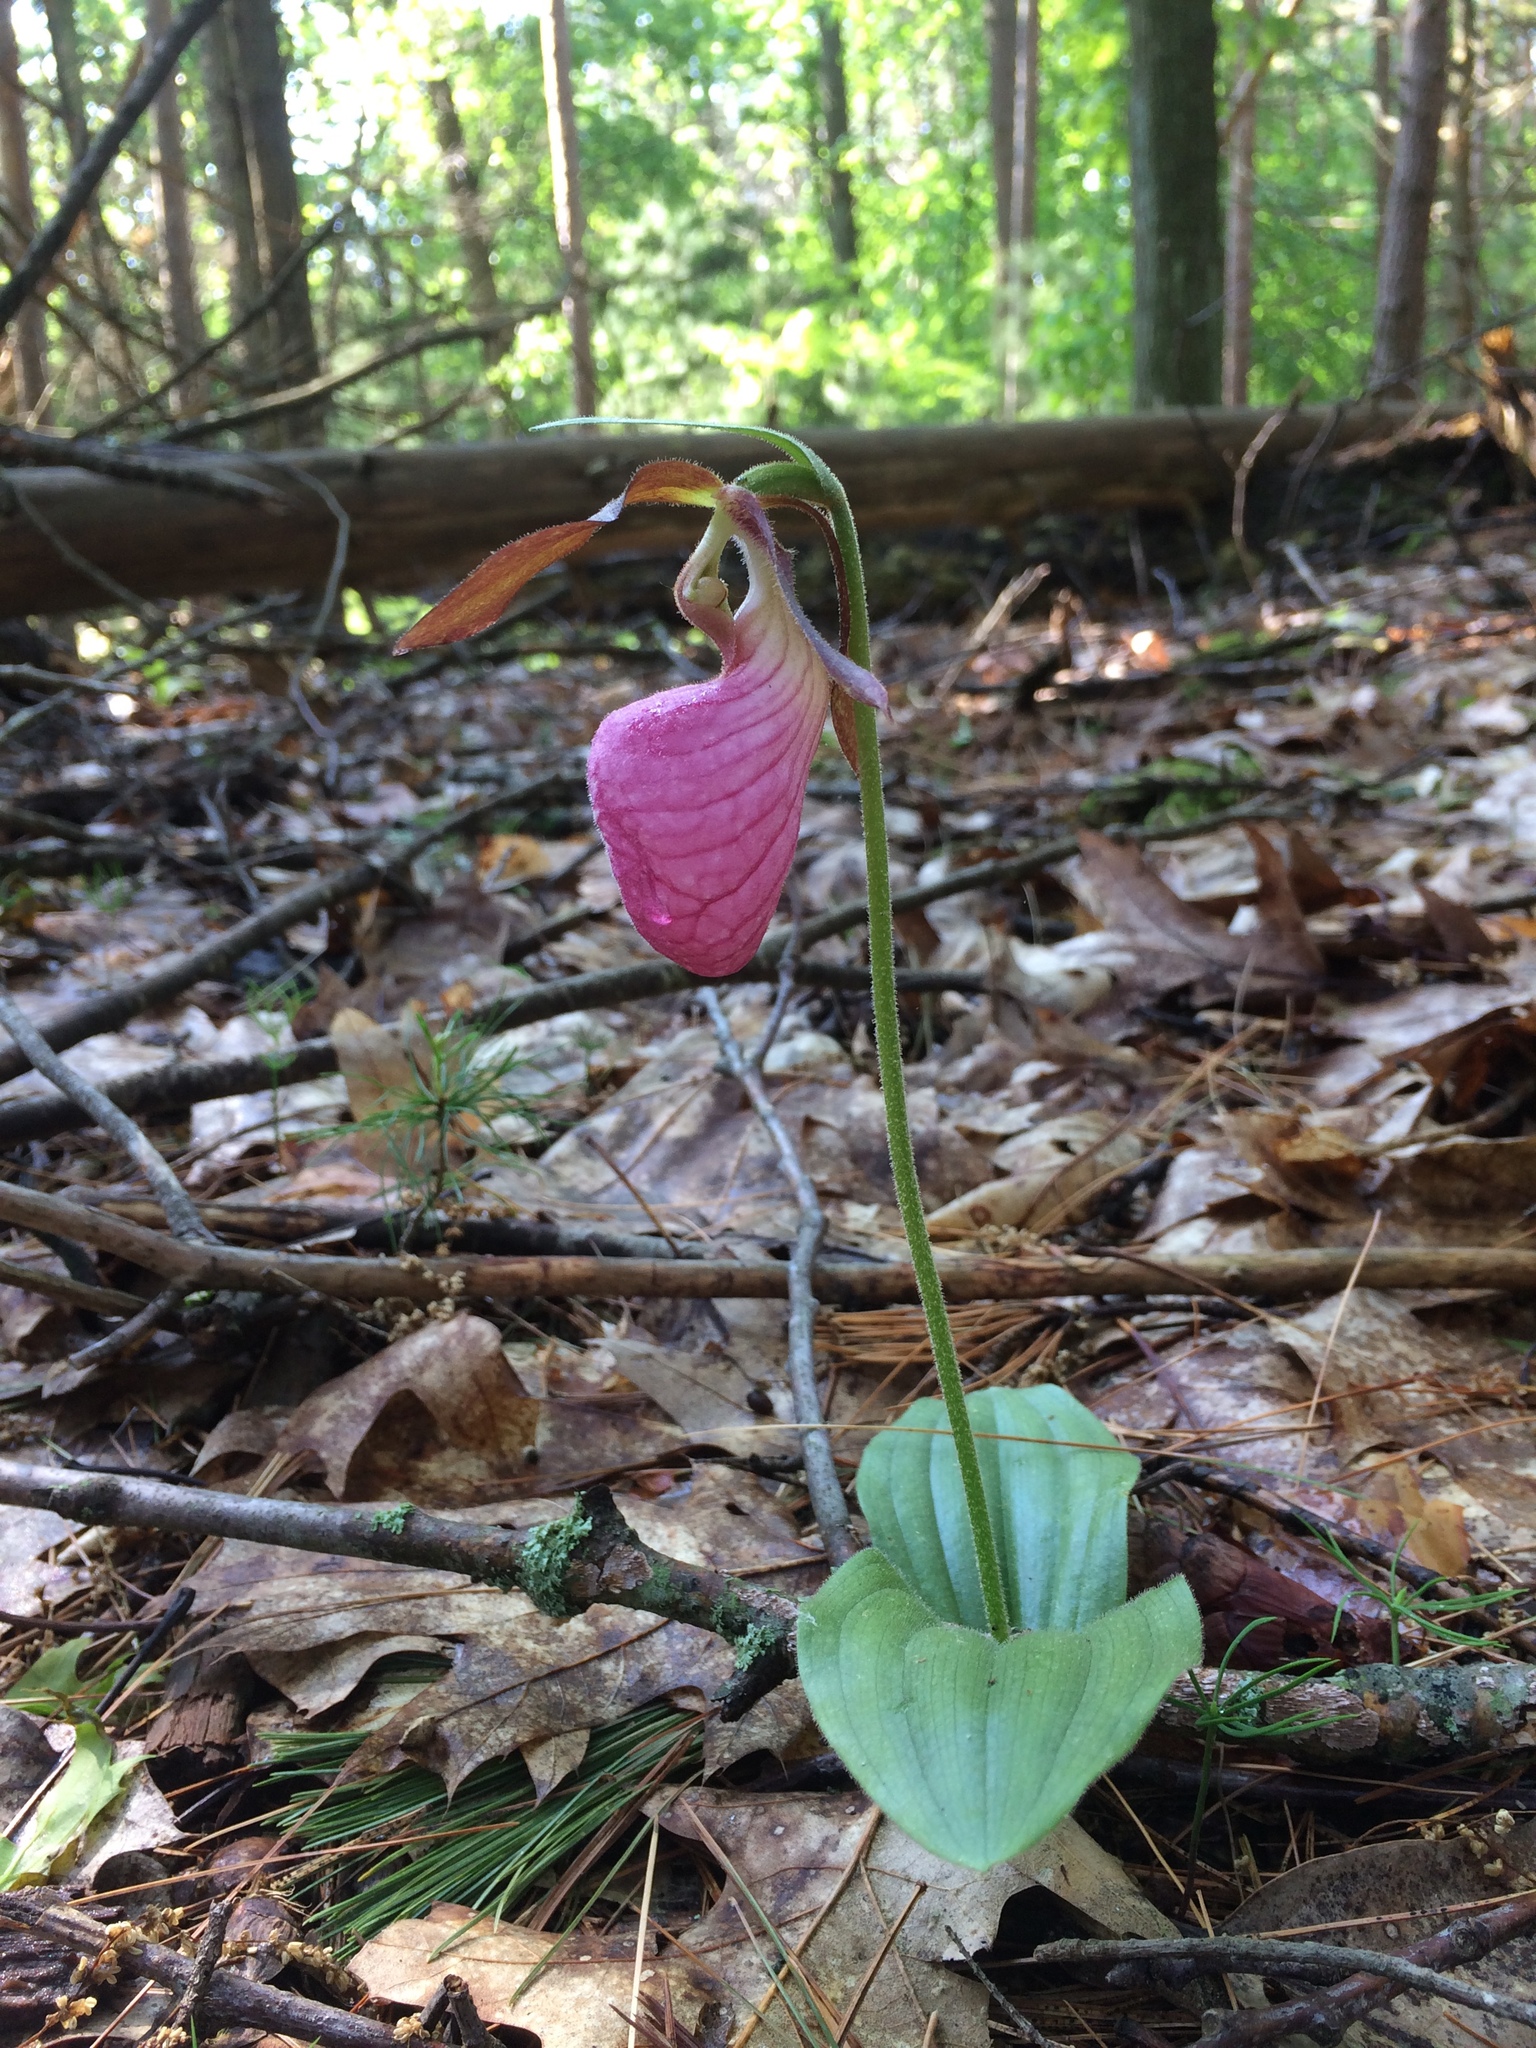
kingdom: Plantae
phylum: Tracheophyta
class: Liliopsida
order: Asparagales
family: Orchidaceae
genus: Cypripedium
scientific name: Cypripedium acaule
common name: Pink lady's-slipper
